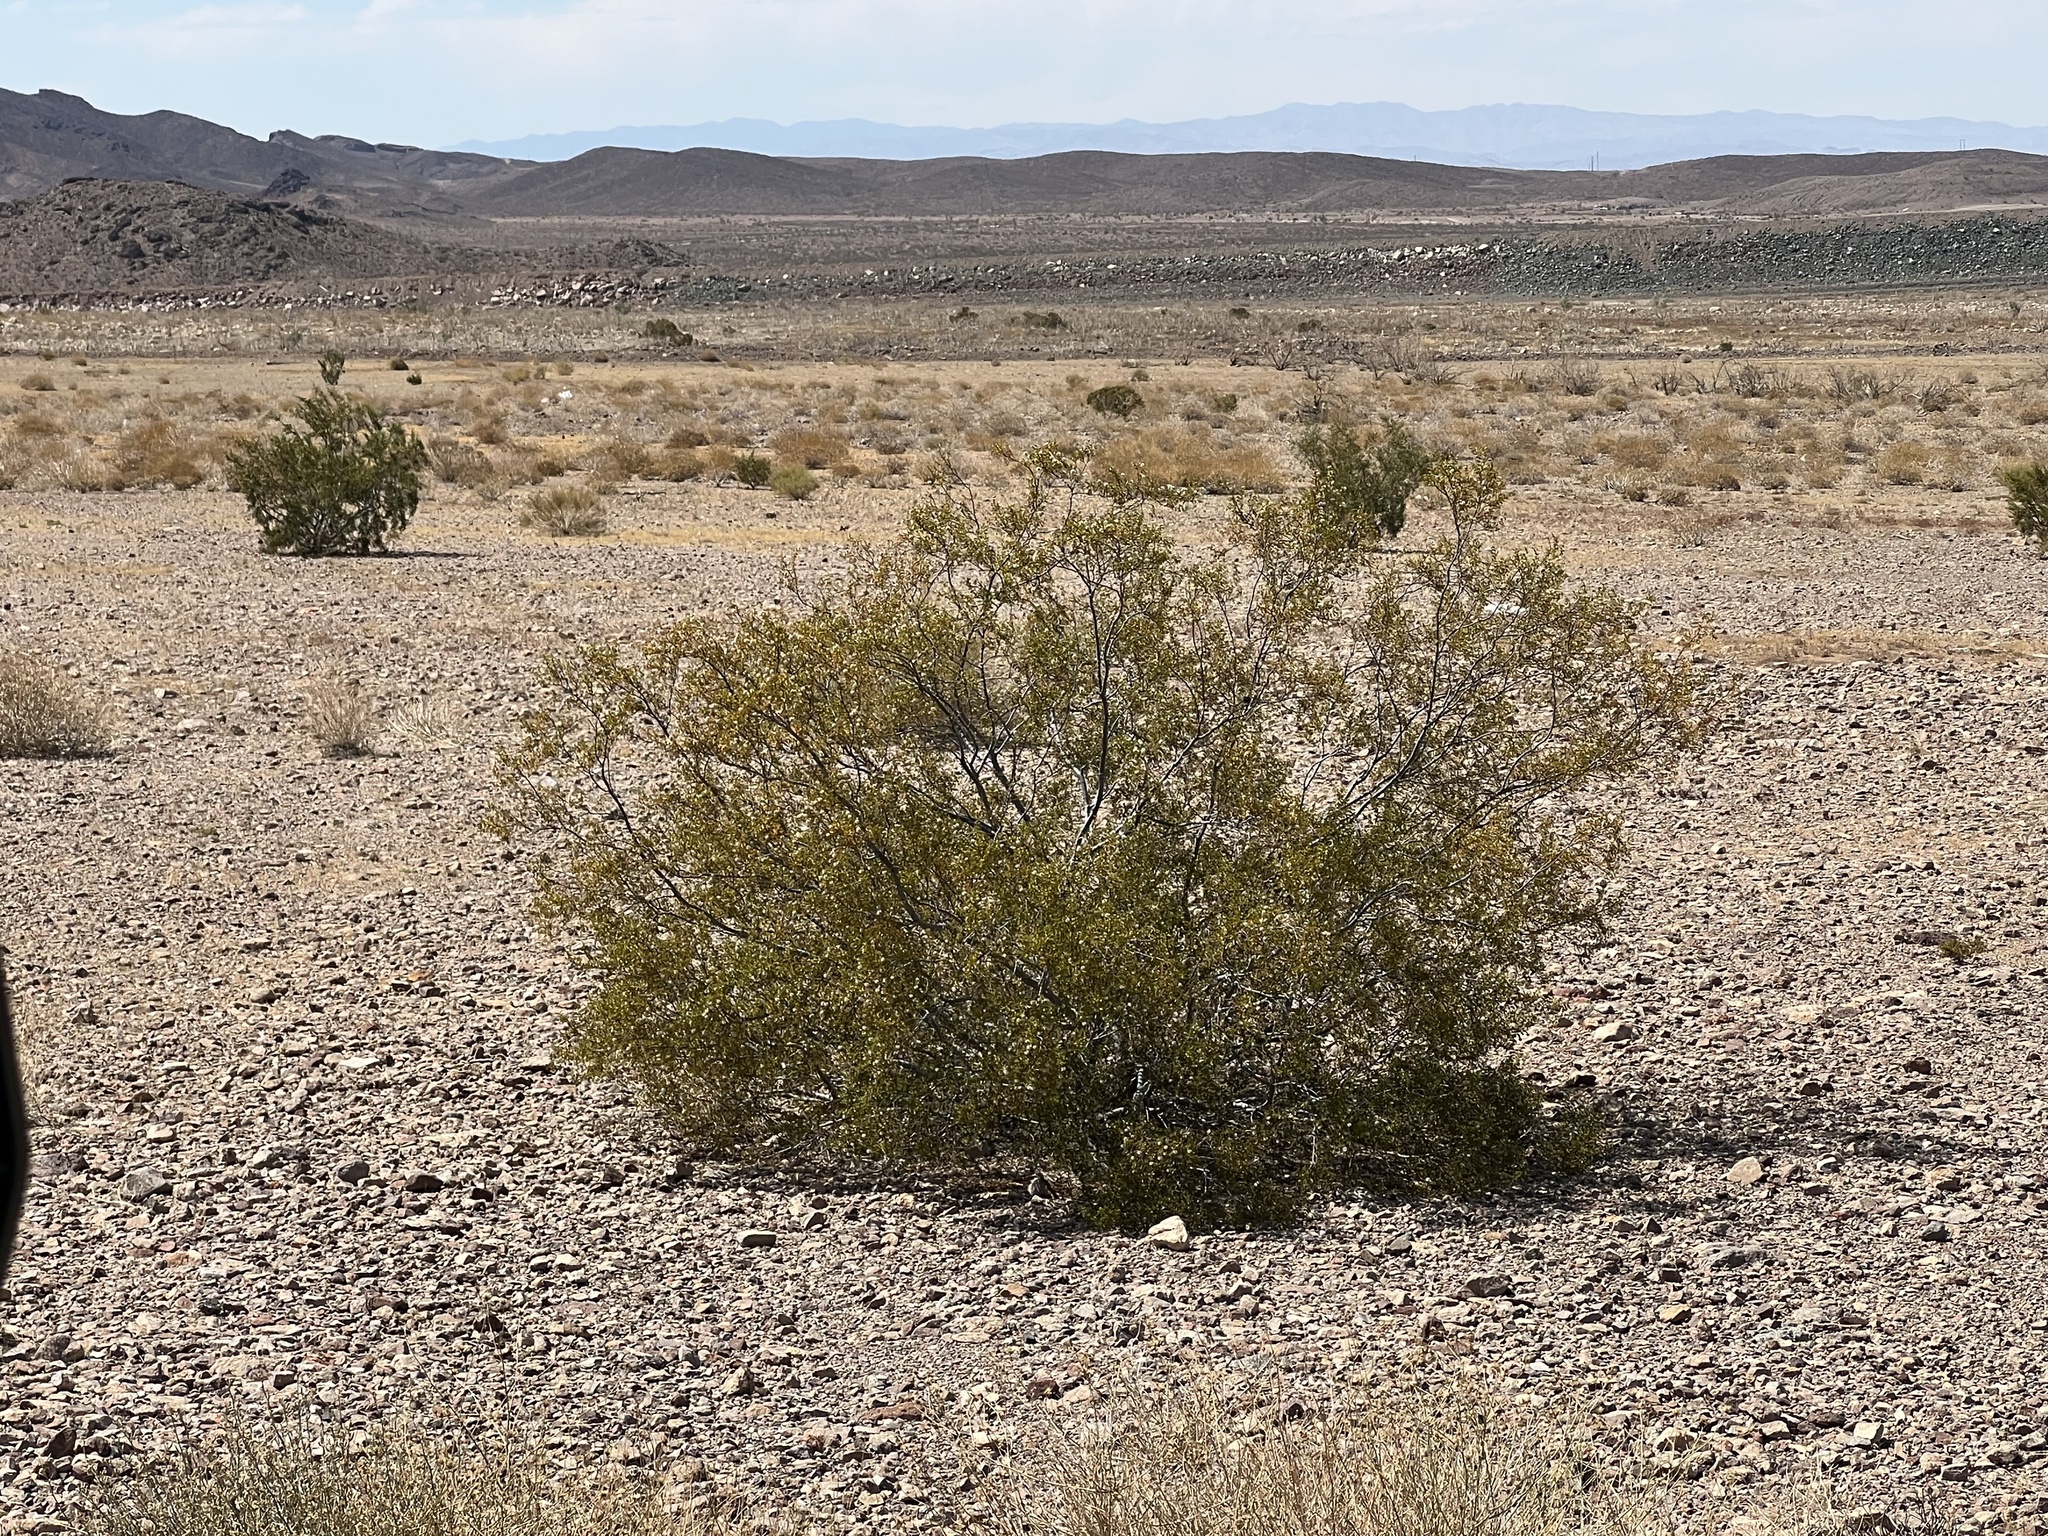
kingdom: Plantae
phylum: Tracheophyta
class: Magnoliopsida
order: Zygophyllales
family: Zygophyllaceae
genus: Larrea
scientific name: Larrea tridentata
